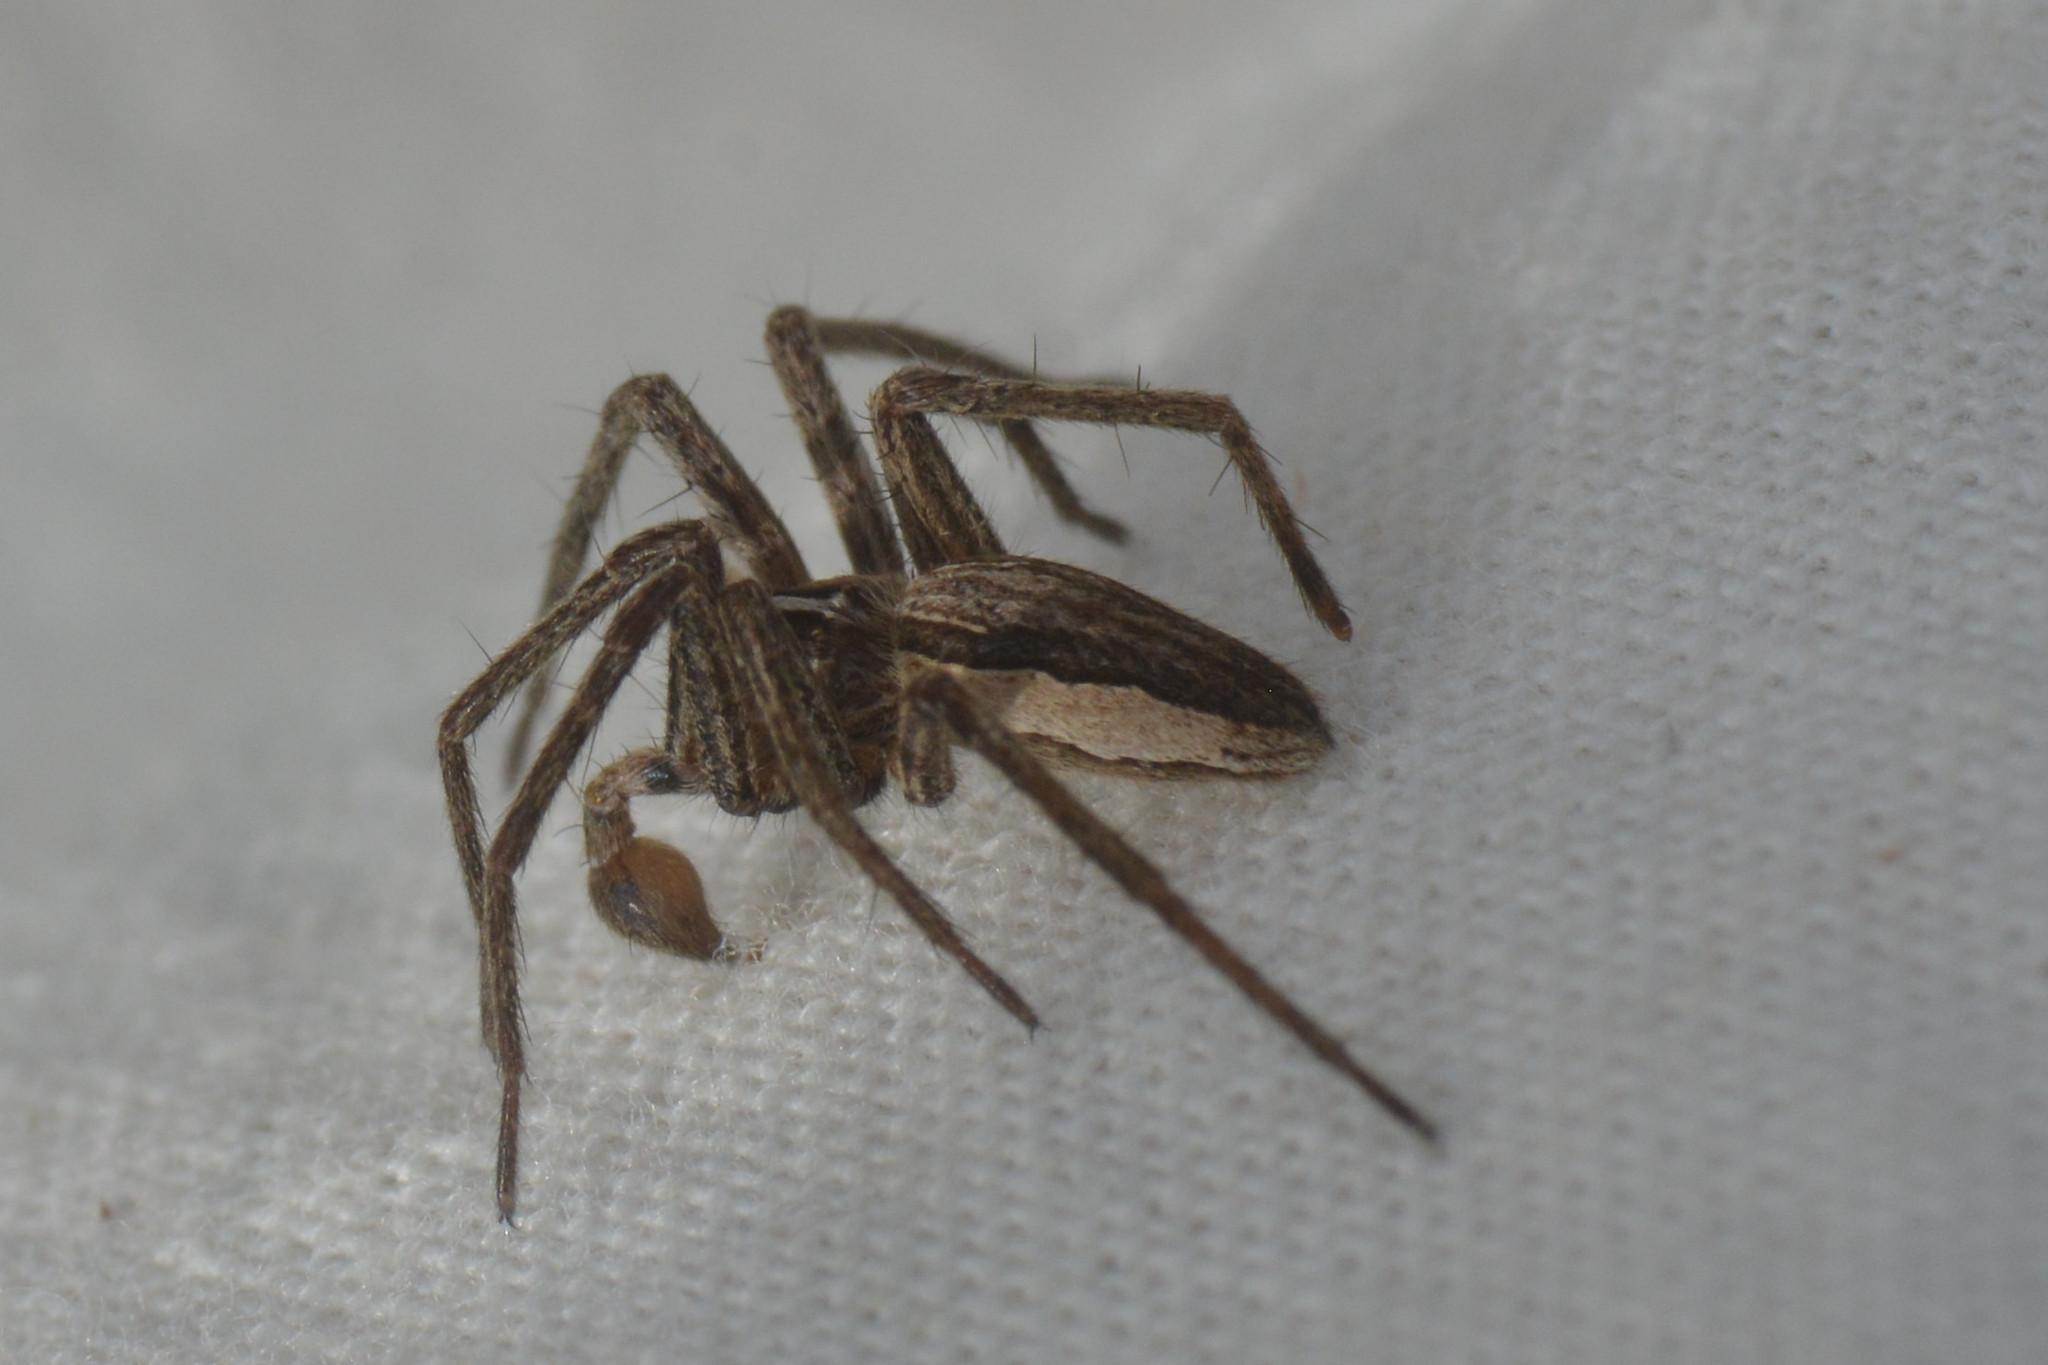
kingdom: Animalia
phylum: Arthropoda
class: Arachnida
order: Araneae
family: Pisauridae
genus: Pisaura
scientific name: Pisaura mirabilis
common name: Tent spider
